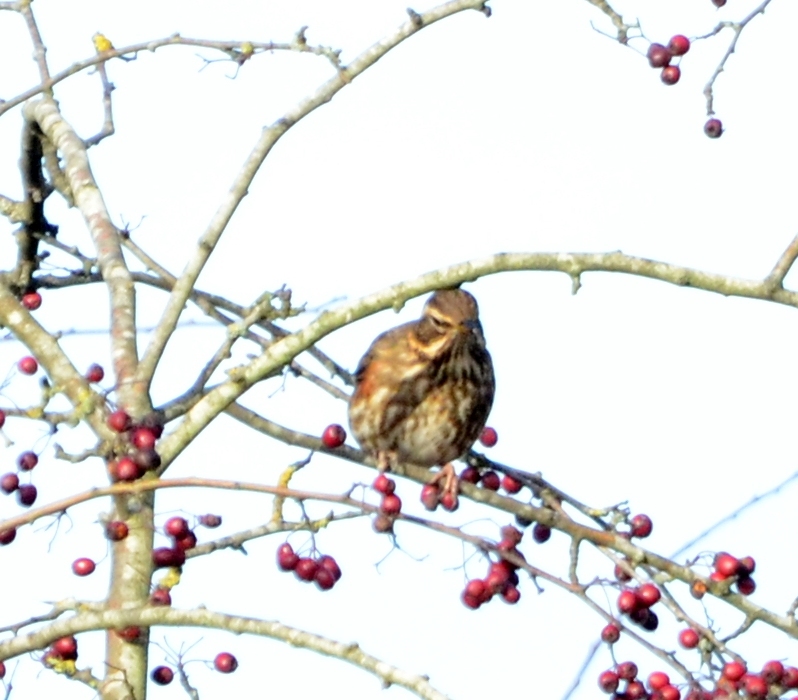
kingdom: Animalia
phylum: Chordata
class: Aves
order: Passeriformes
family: Turdidae
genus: Turdus
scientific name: Turdus iliacus
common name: Redwing
